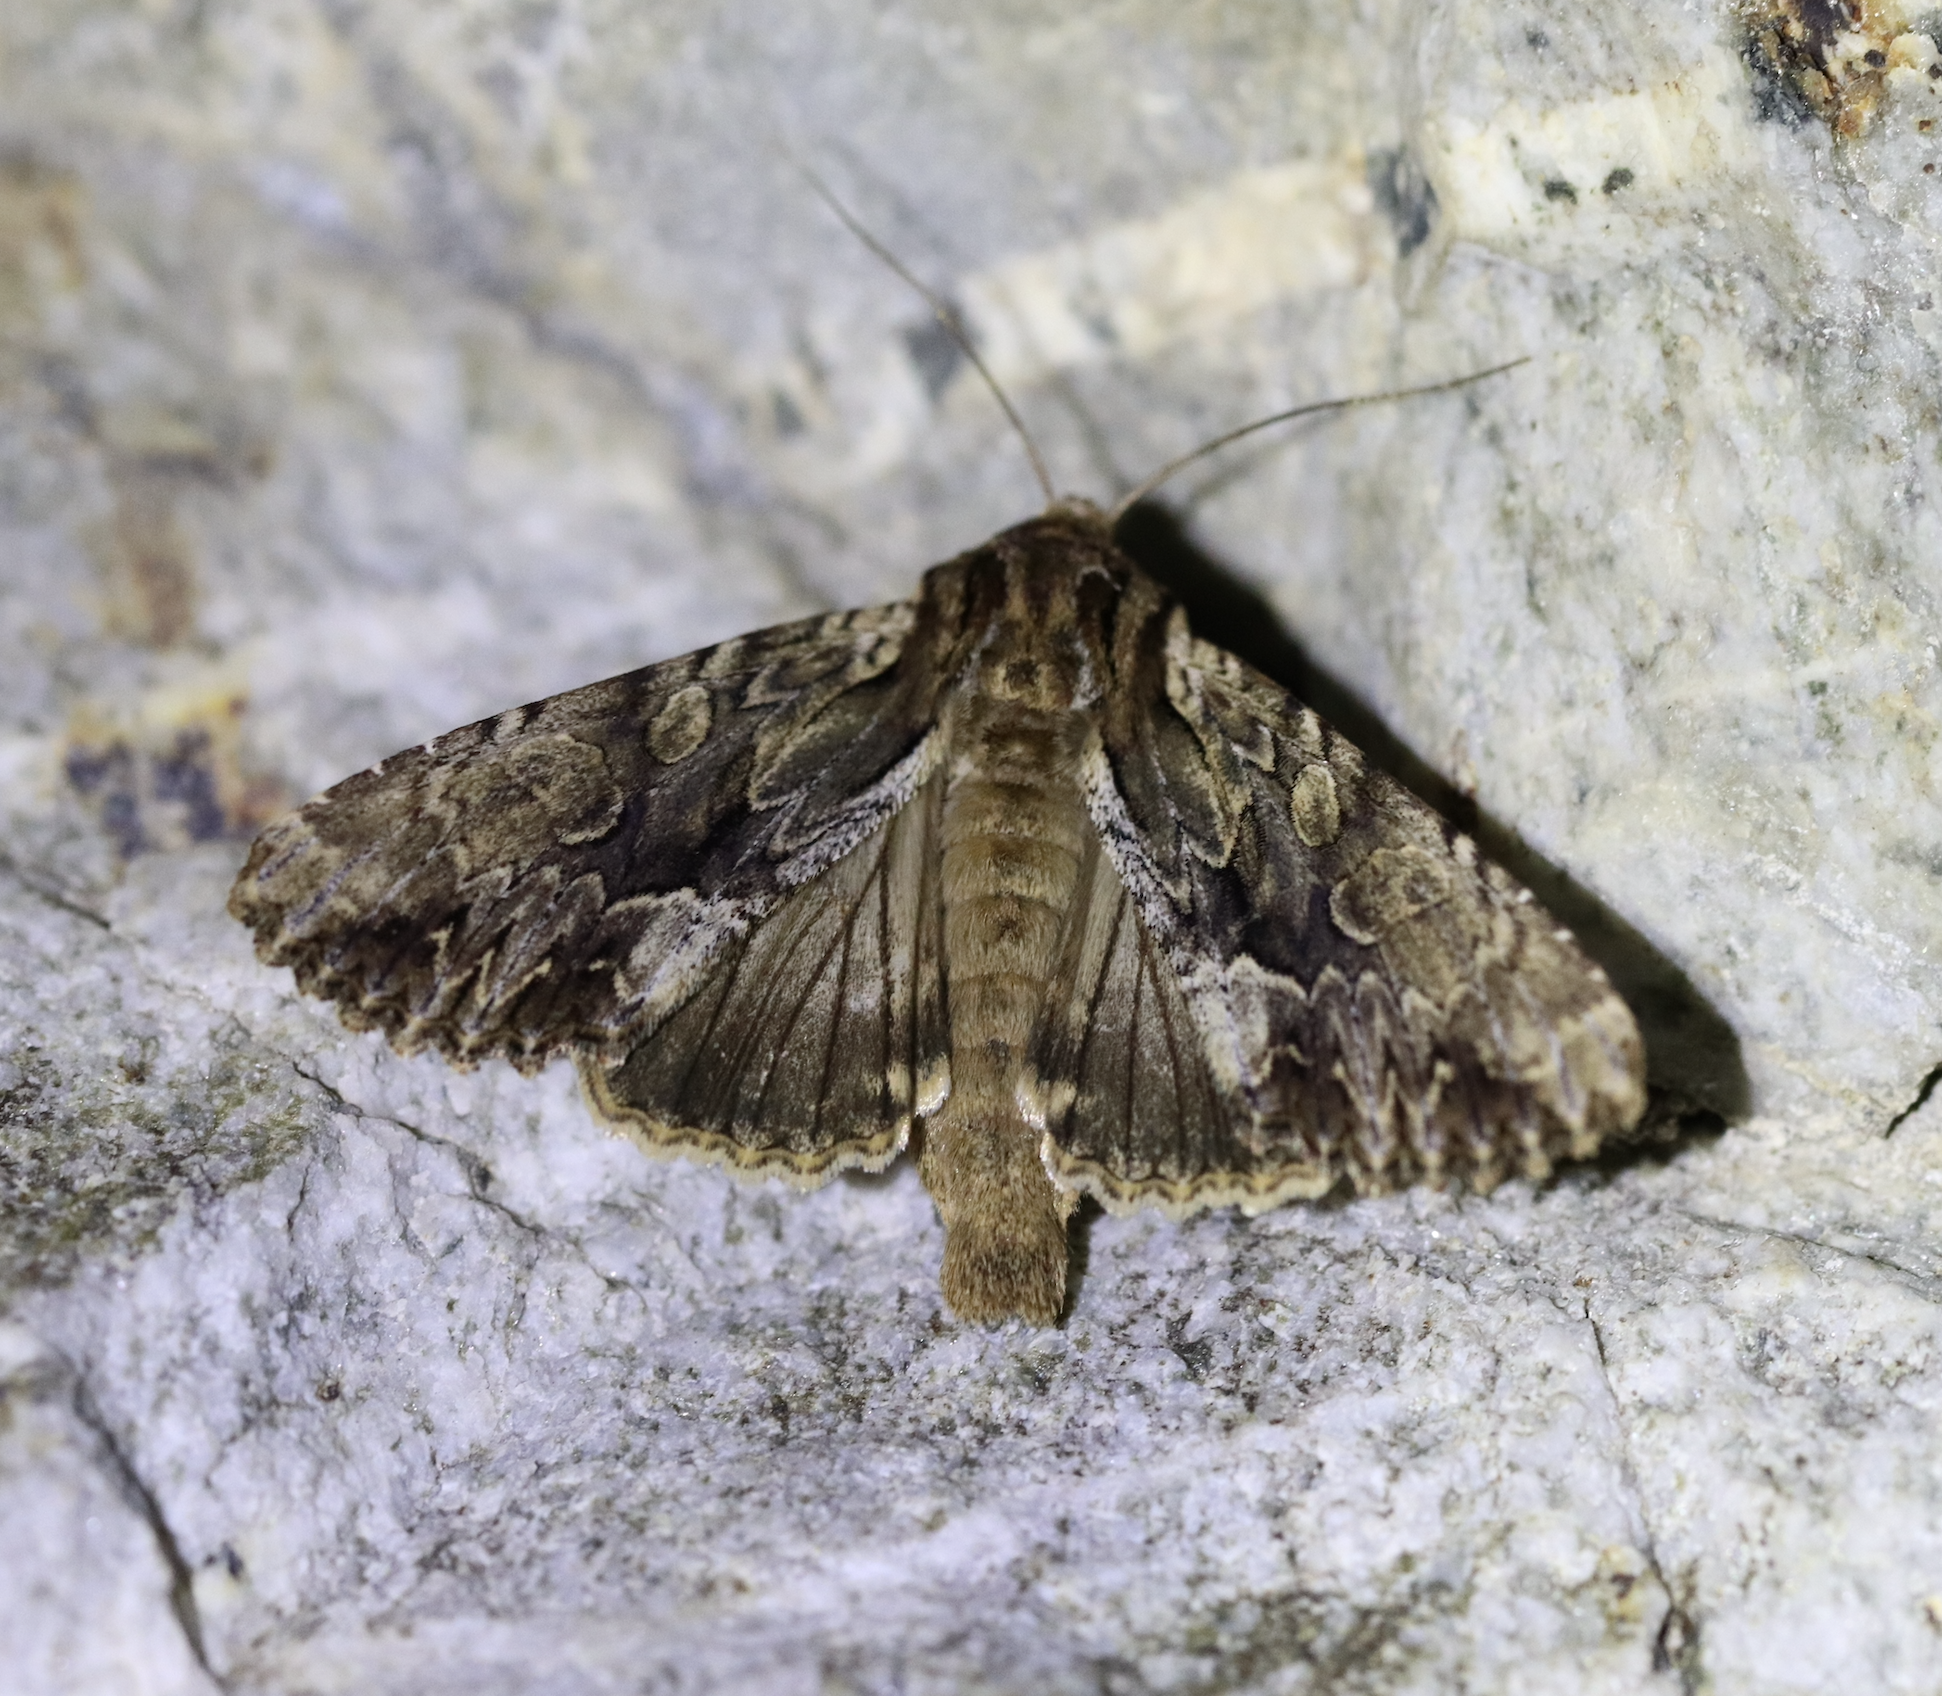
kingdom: Animalia
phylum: Arthropoda
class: Insecta
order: Lepidoptera
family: Noctuidae
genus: Apamea
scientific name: Apamea monoglypha
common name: Dark arches
